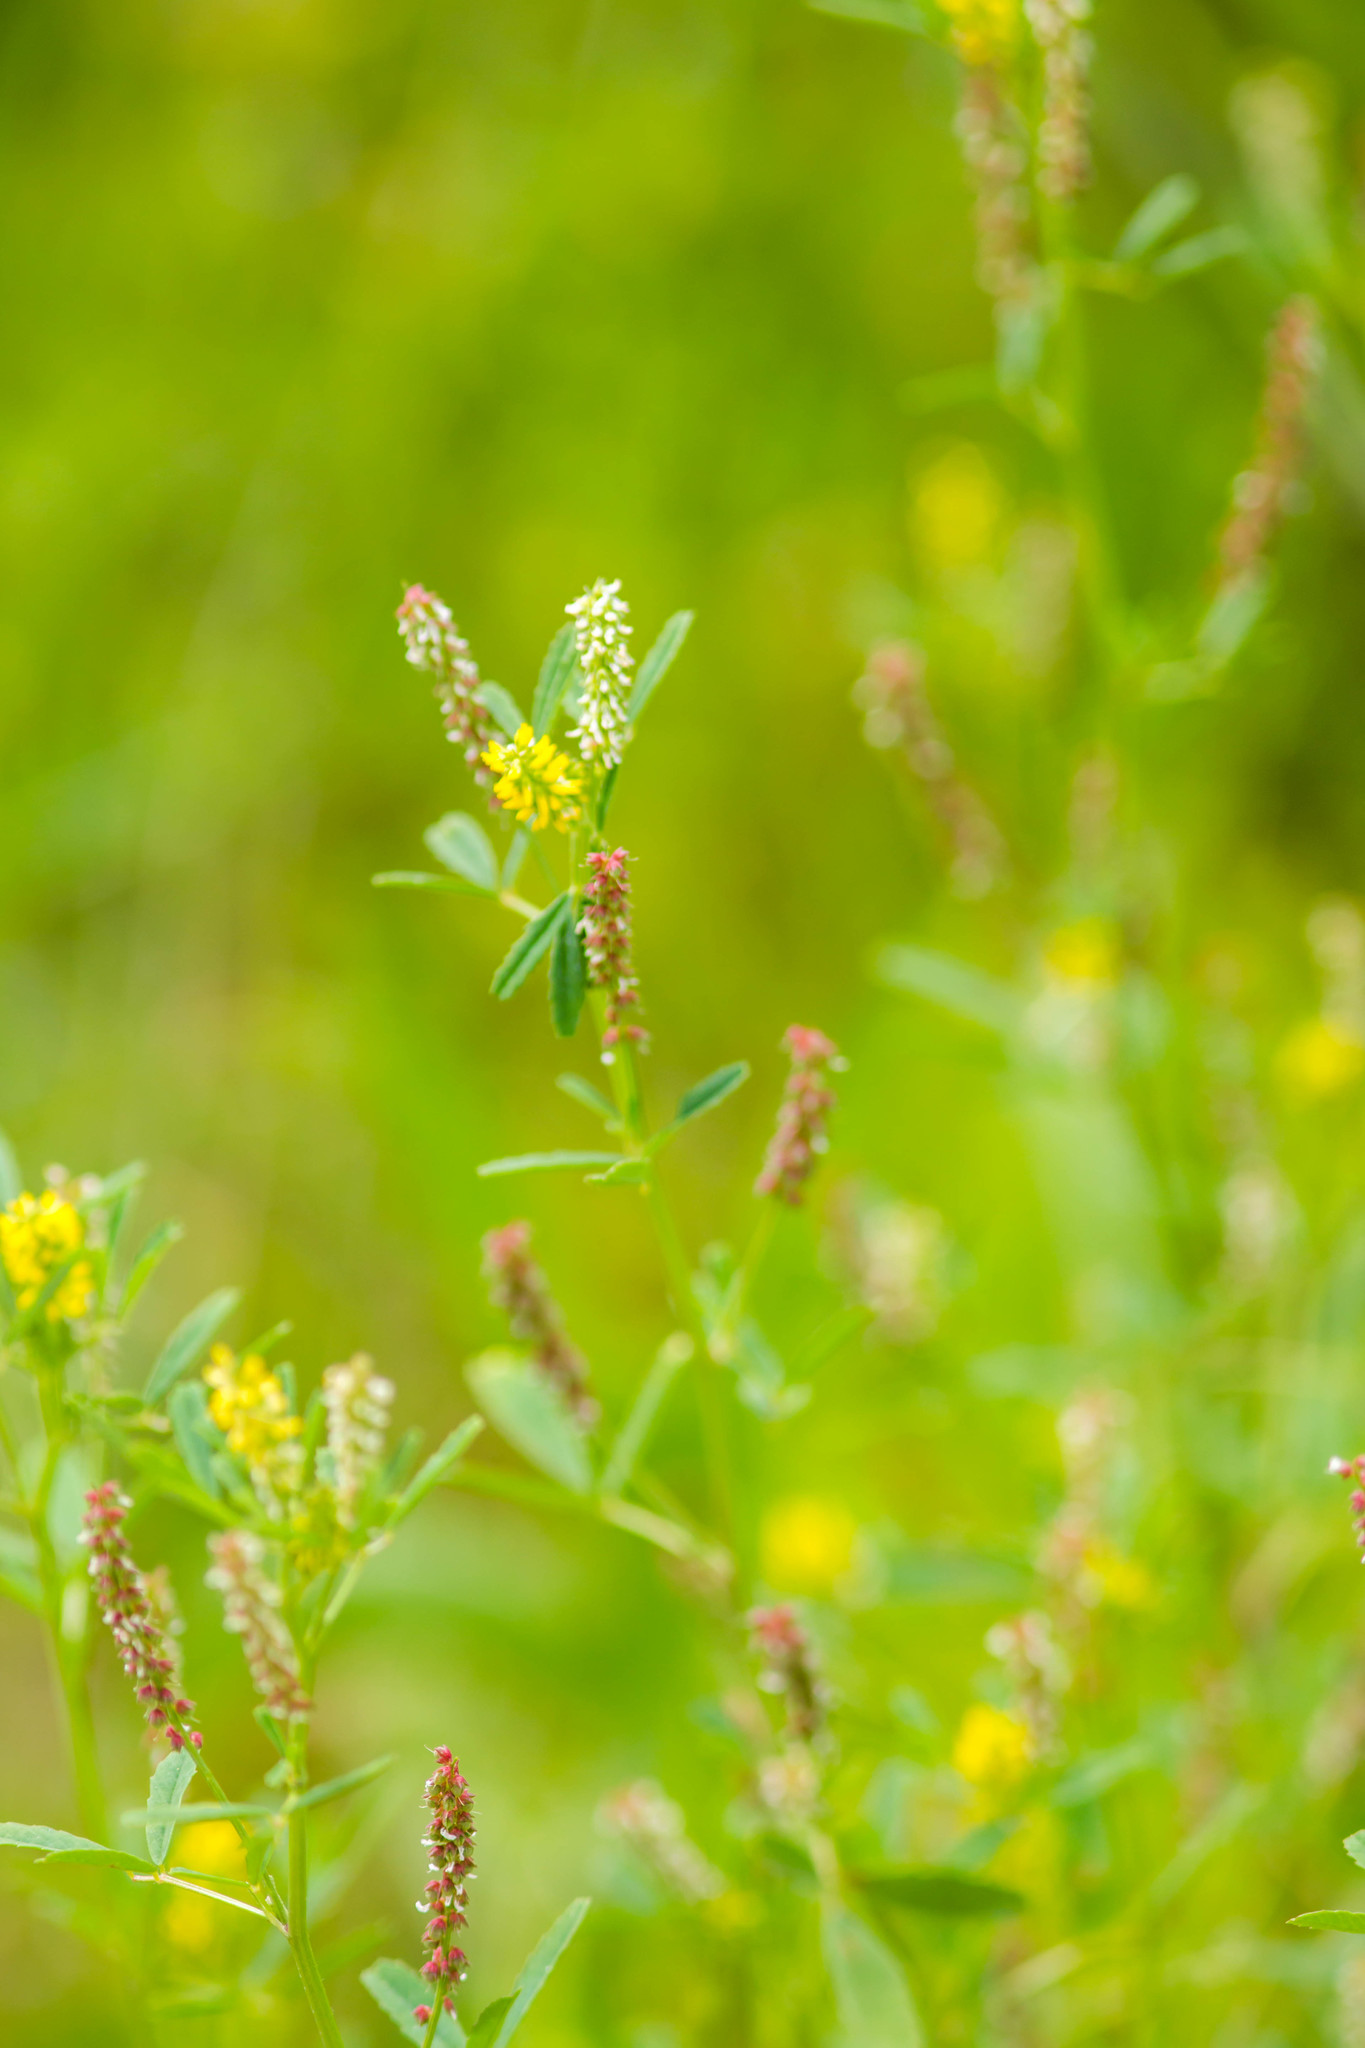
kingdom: Plantae
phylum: Tracheophyta
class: Magnoliopsida
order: Fabales
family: Fabaceae
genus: Melilotus
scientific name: Melilotus indicus
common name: Small melilot
